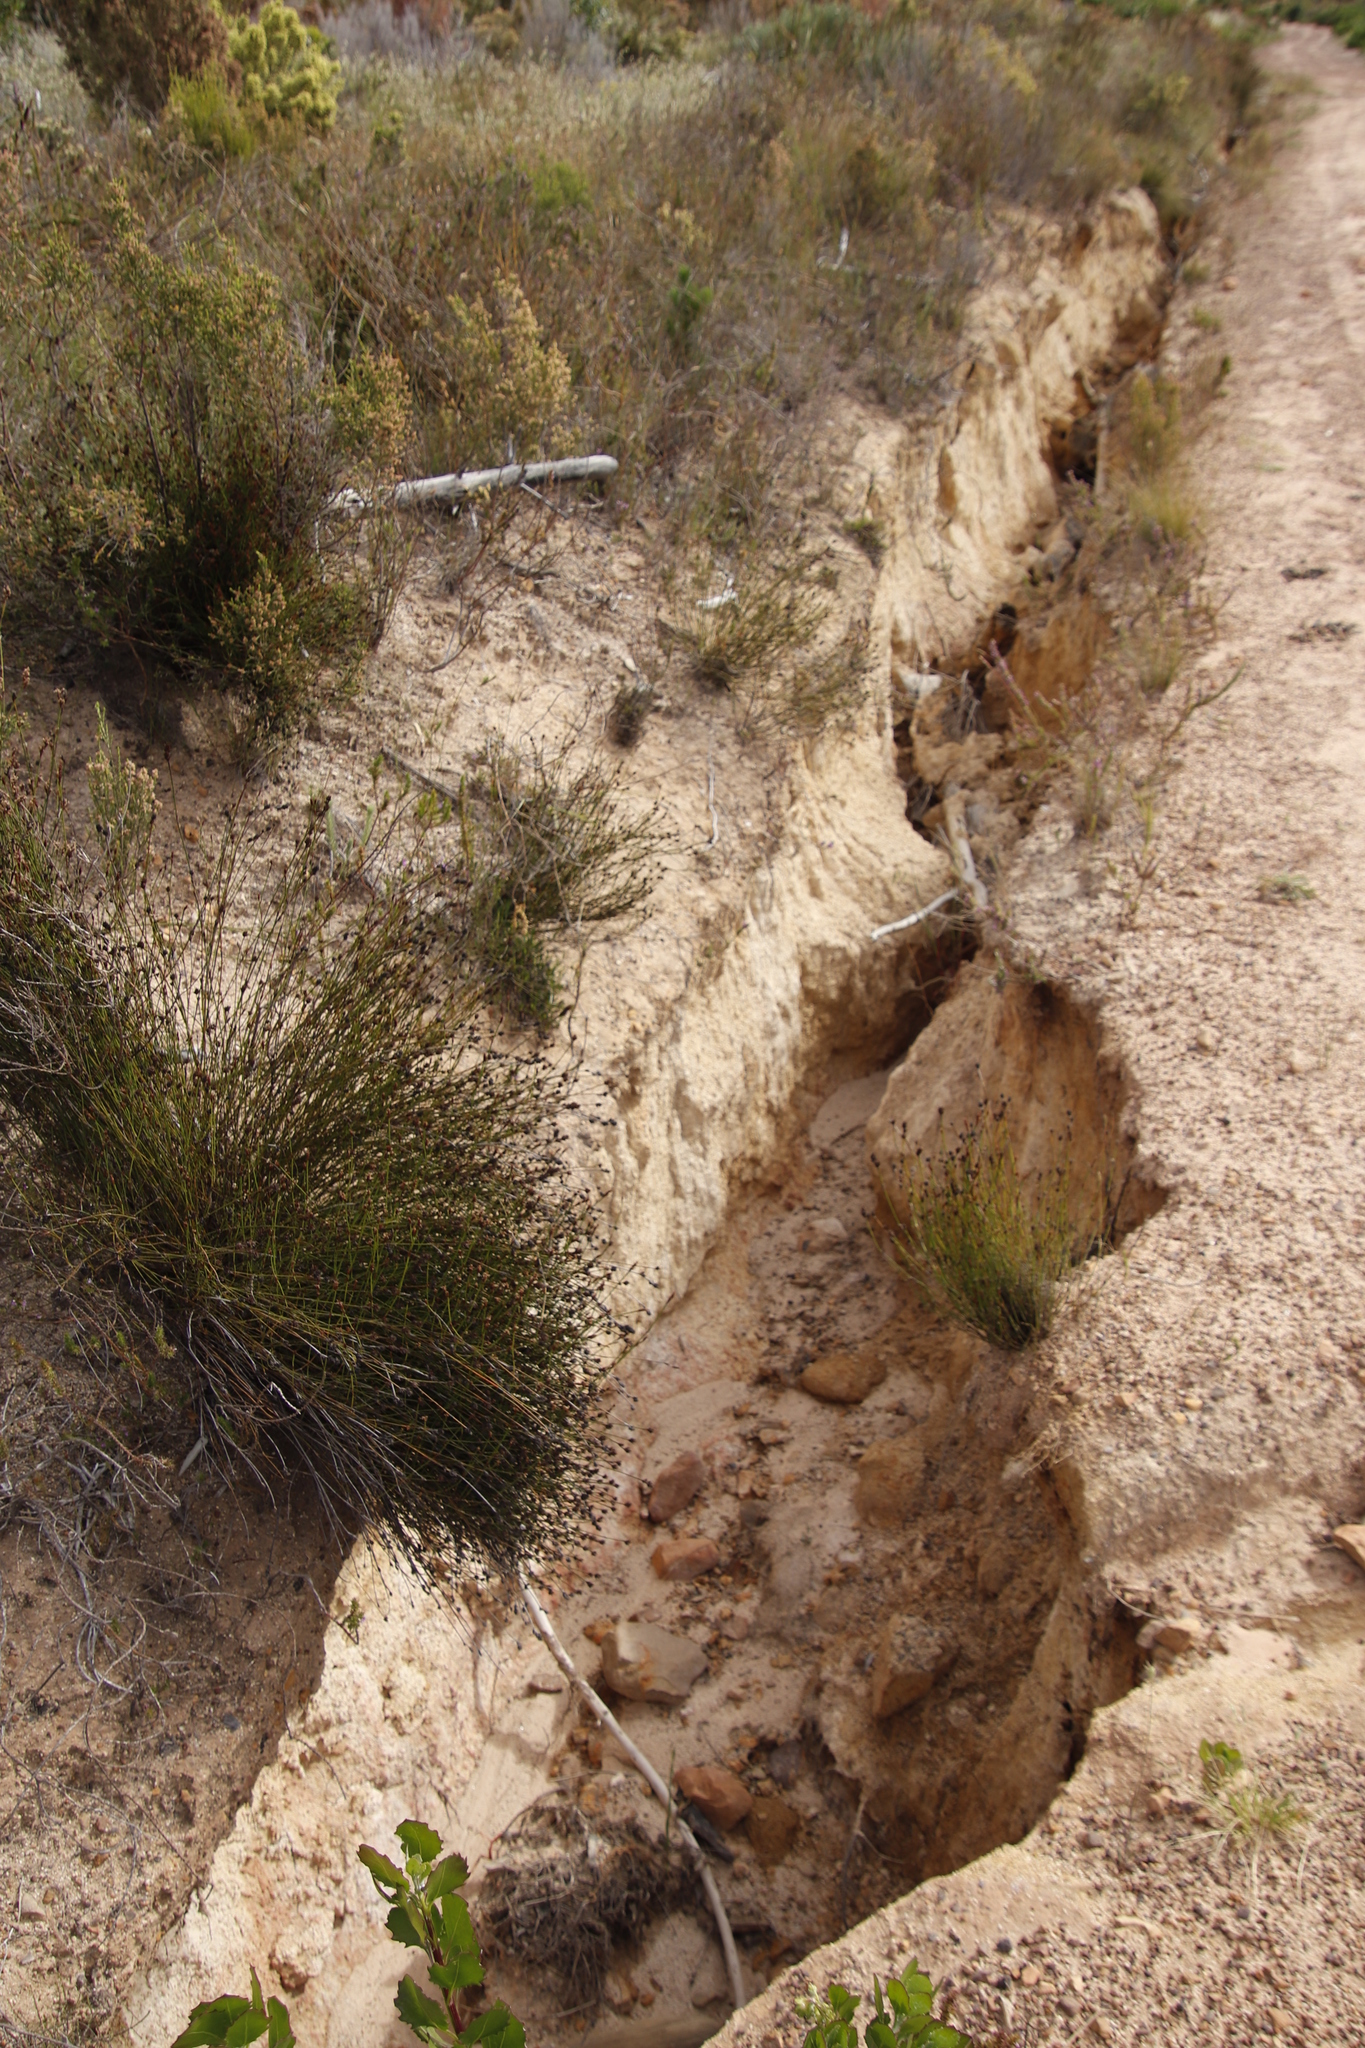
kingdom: Plantae
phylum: Tracheophyta
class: Liliopsida
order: Poales
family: Restionaceae
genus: Restio
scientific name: Restio capensis
